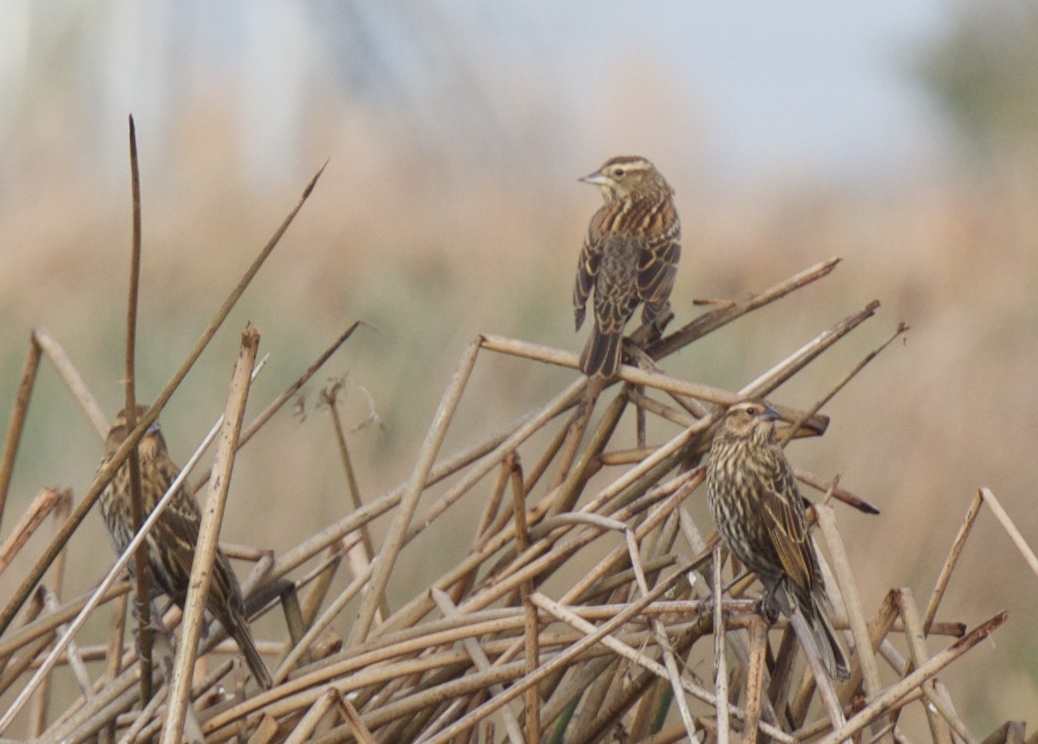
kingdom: Animalia
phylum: Chordata
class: Aves
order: Passeriformes
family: Icteridae
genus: Agelaius
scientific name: Agelaius phoeniceus
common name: Red-winged blackbird
